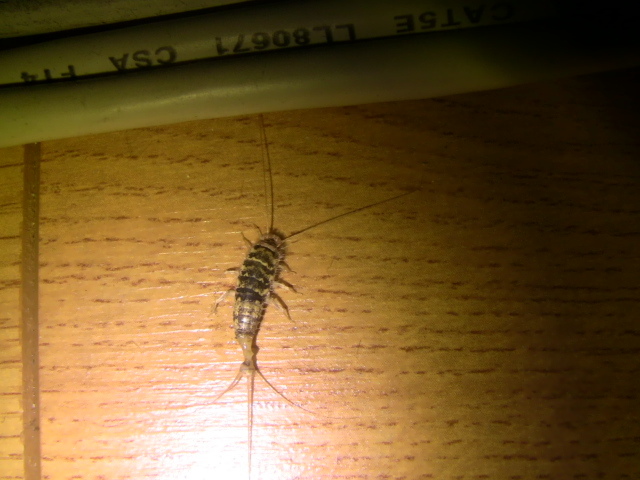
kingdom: Animalia
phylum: Arthropoda
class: Insecta
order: Zygentoma
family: Lepismatidae
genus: Thermobia
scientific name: Thermobia domestica
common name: Firebrat
